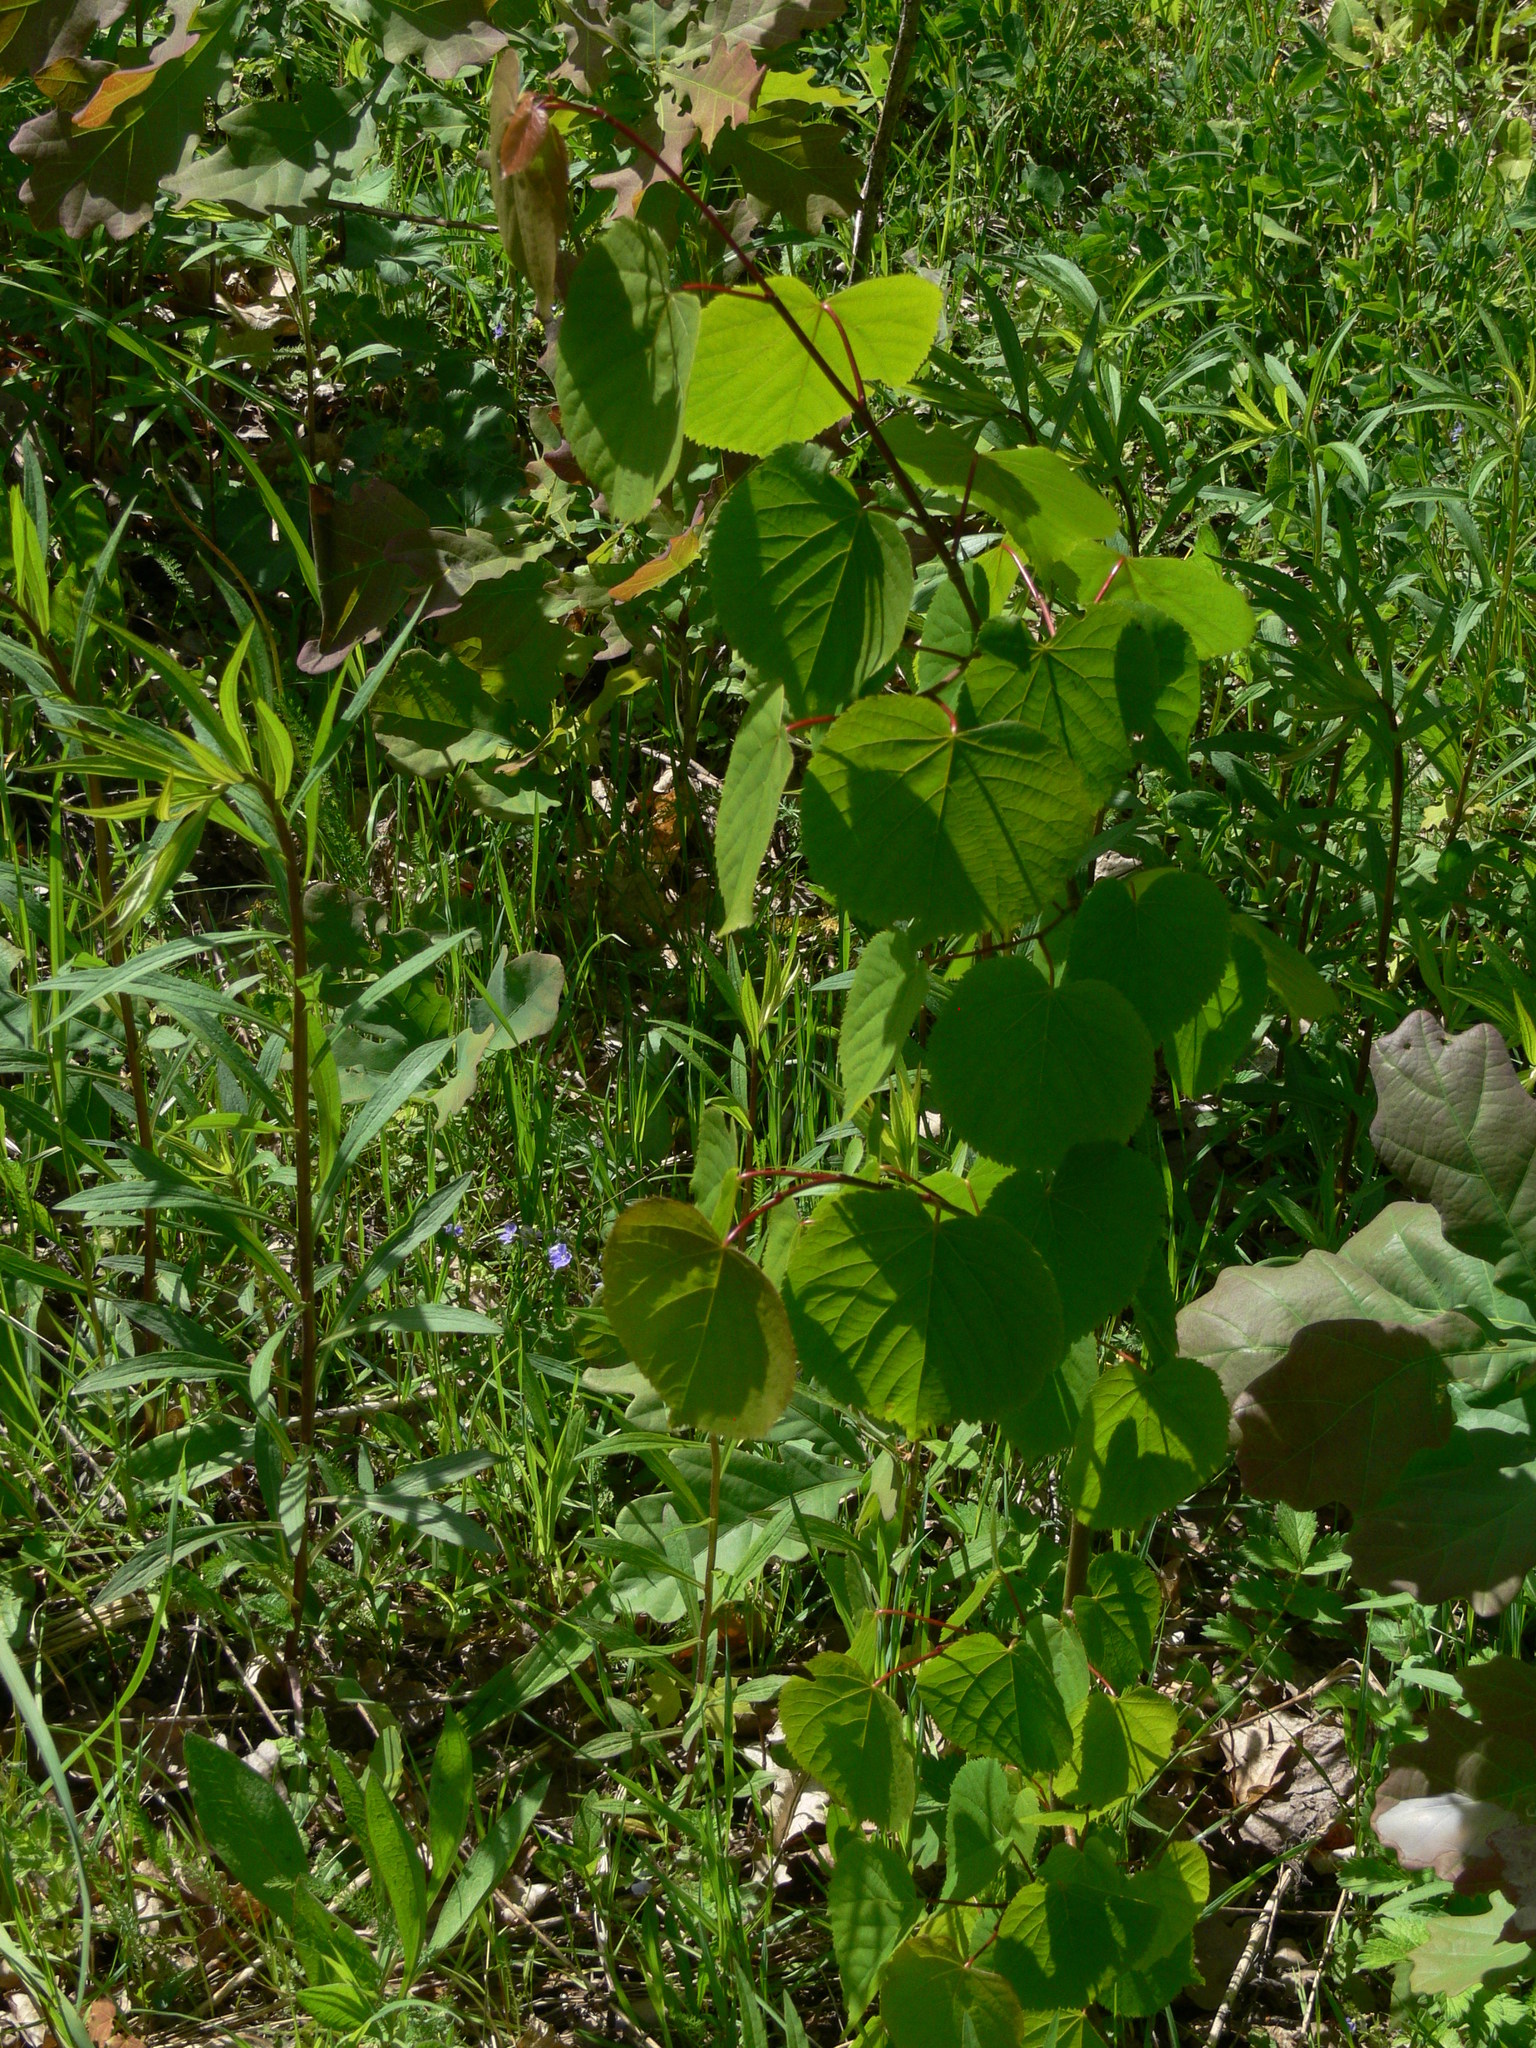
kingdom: Plantae
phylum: Tracheophyta
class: Magnoliopsida
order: Malvales
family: Malvaceae
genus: Tilia
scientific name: Tilia cordata
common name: Small-leaved lime
